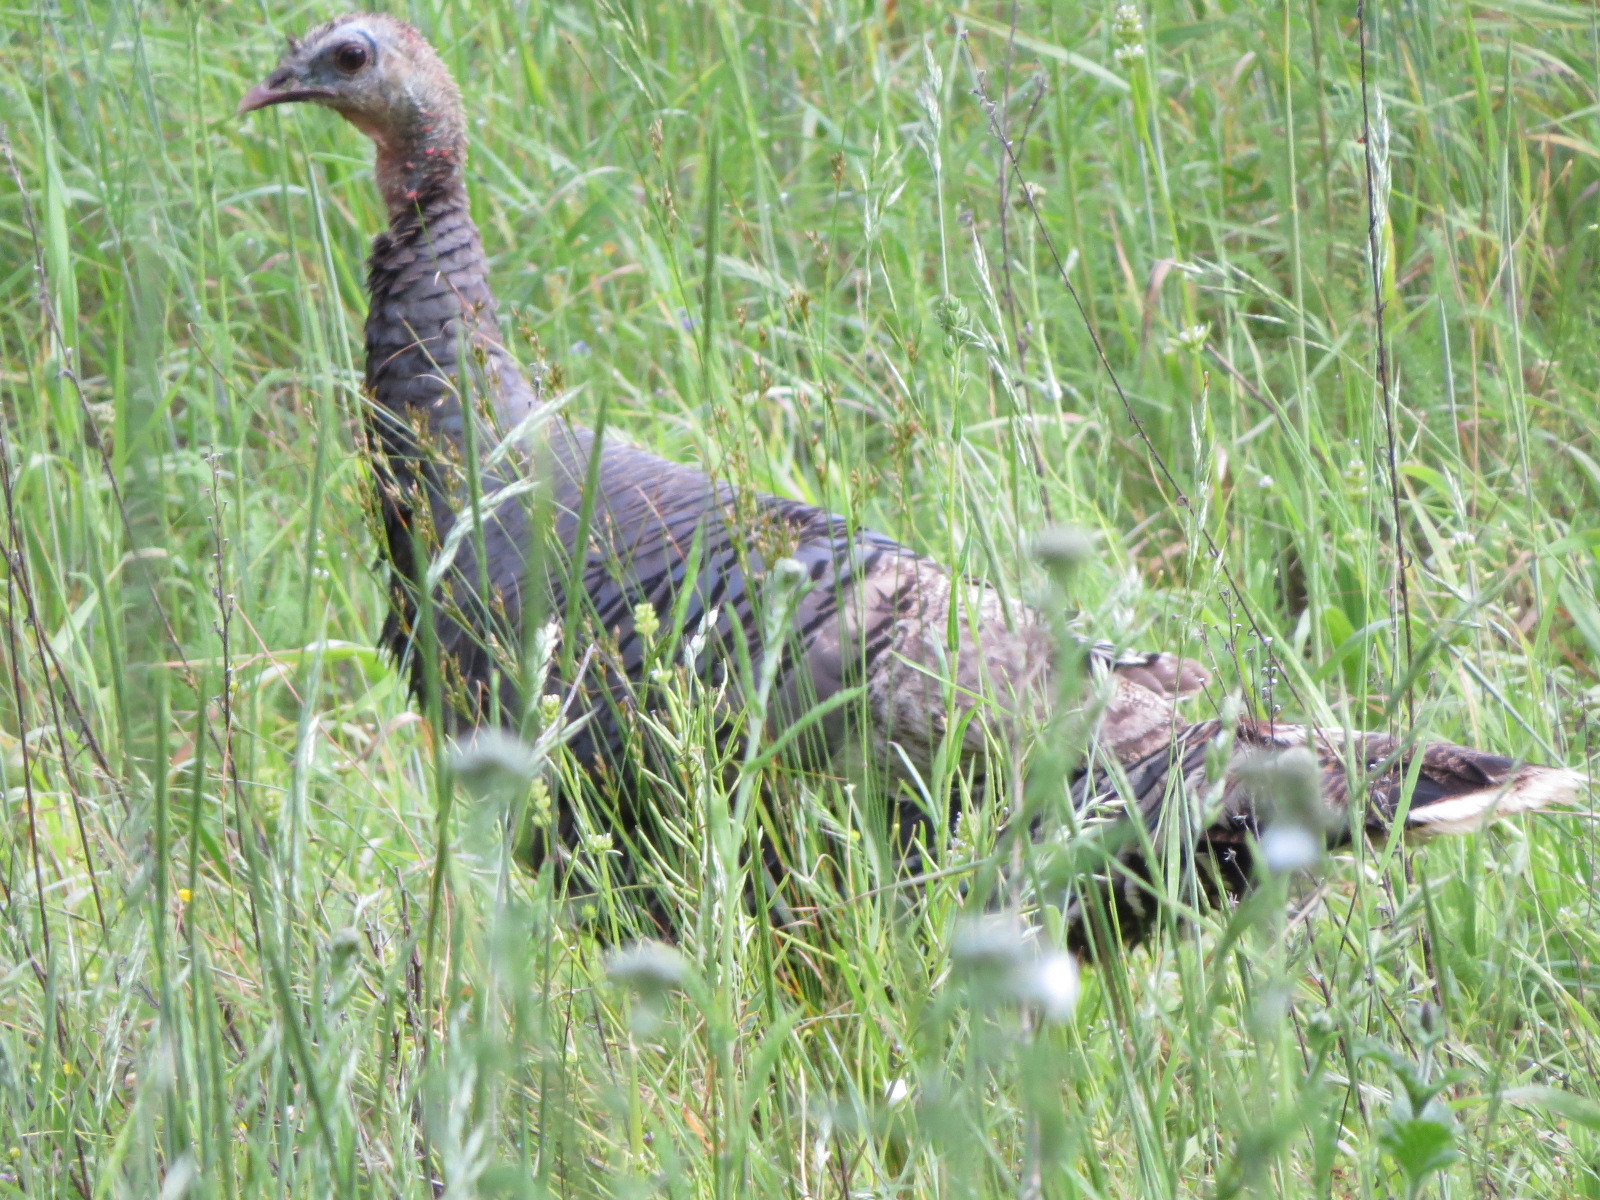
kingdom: Animalia
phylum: Chordata
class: Aves
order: Galliformes
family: Phasianidae
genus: Meleagris
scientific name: Meleagris gallopavo
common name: Wild turkey
